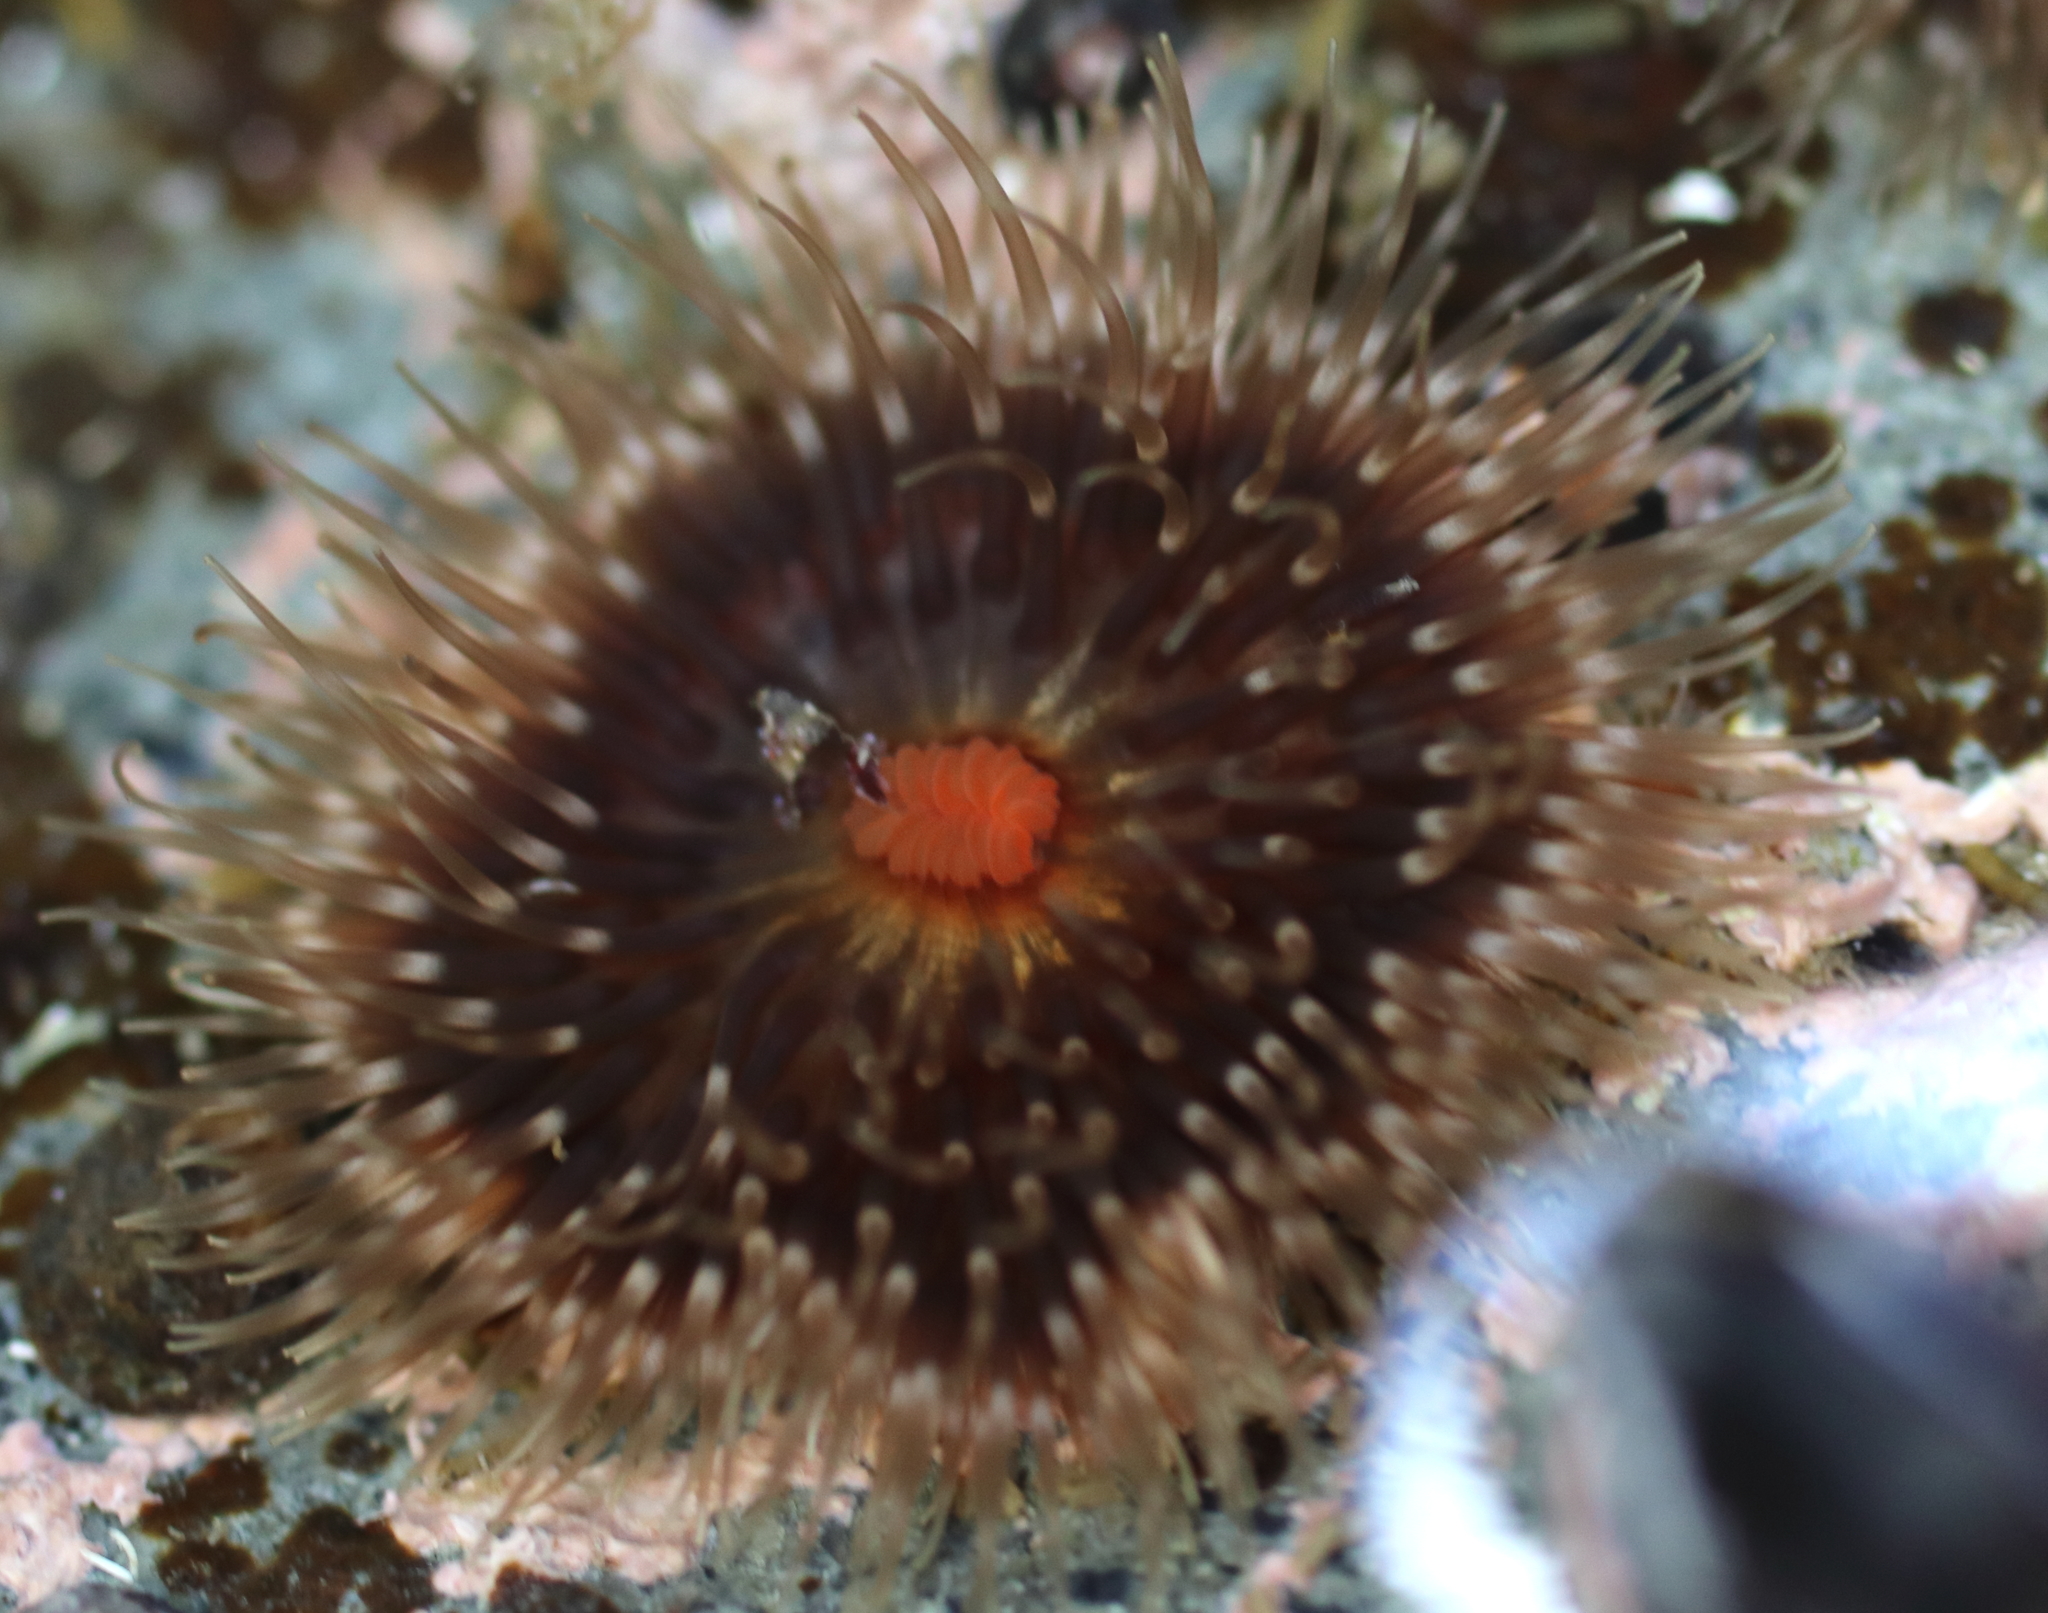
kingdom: Animalia
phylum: Cnidaria
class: Anthozoa
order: Actiniaria
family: Metridiidae
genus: Metridium
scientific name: Metridium senile
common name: Clonal plumose anemone
